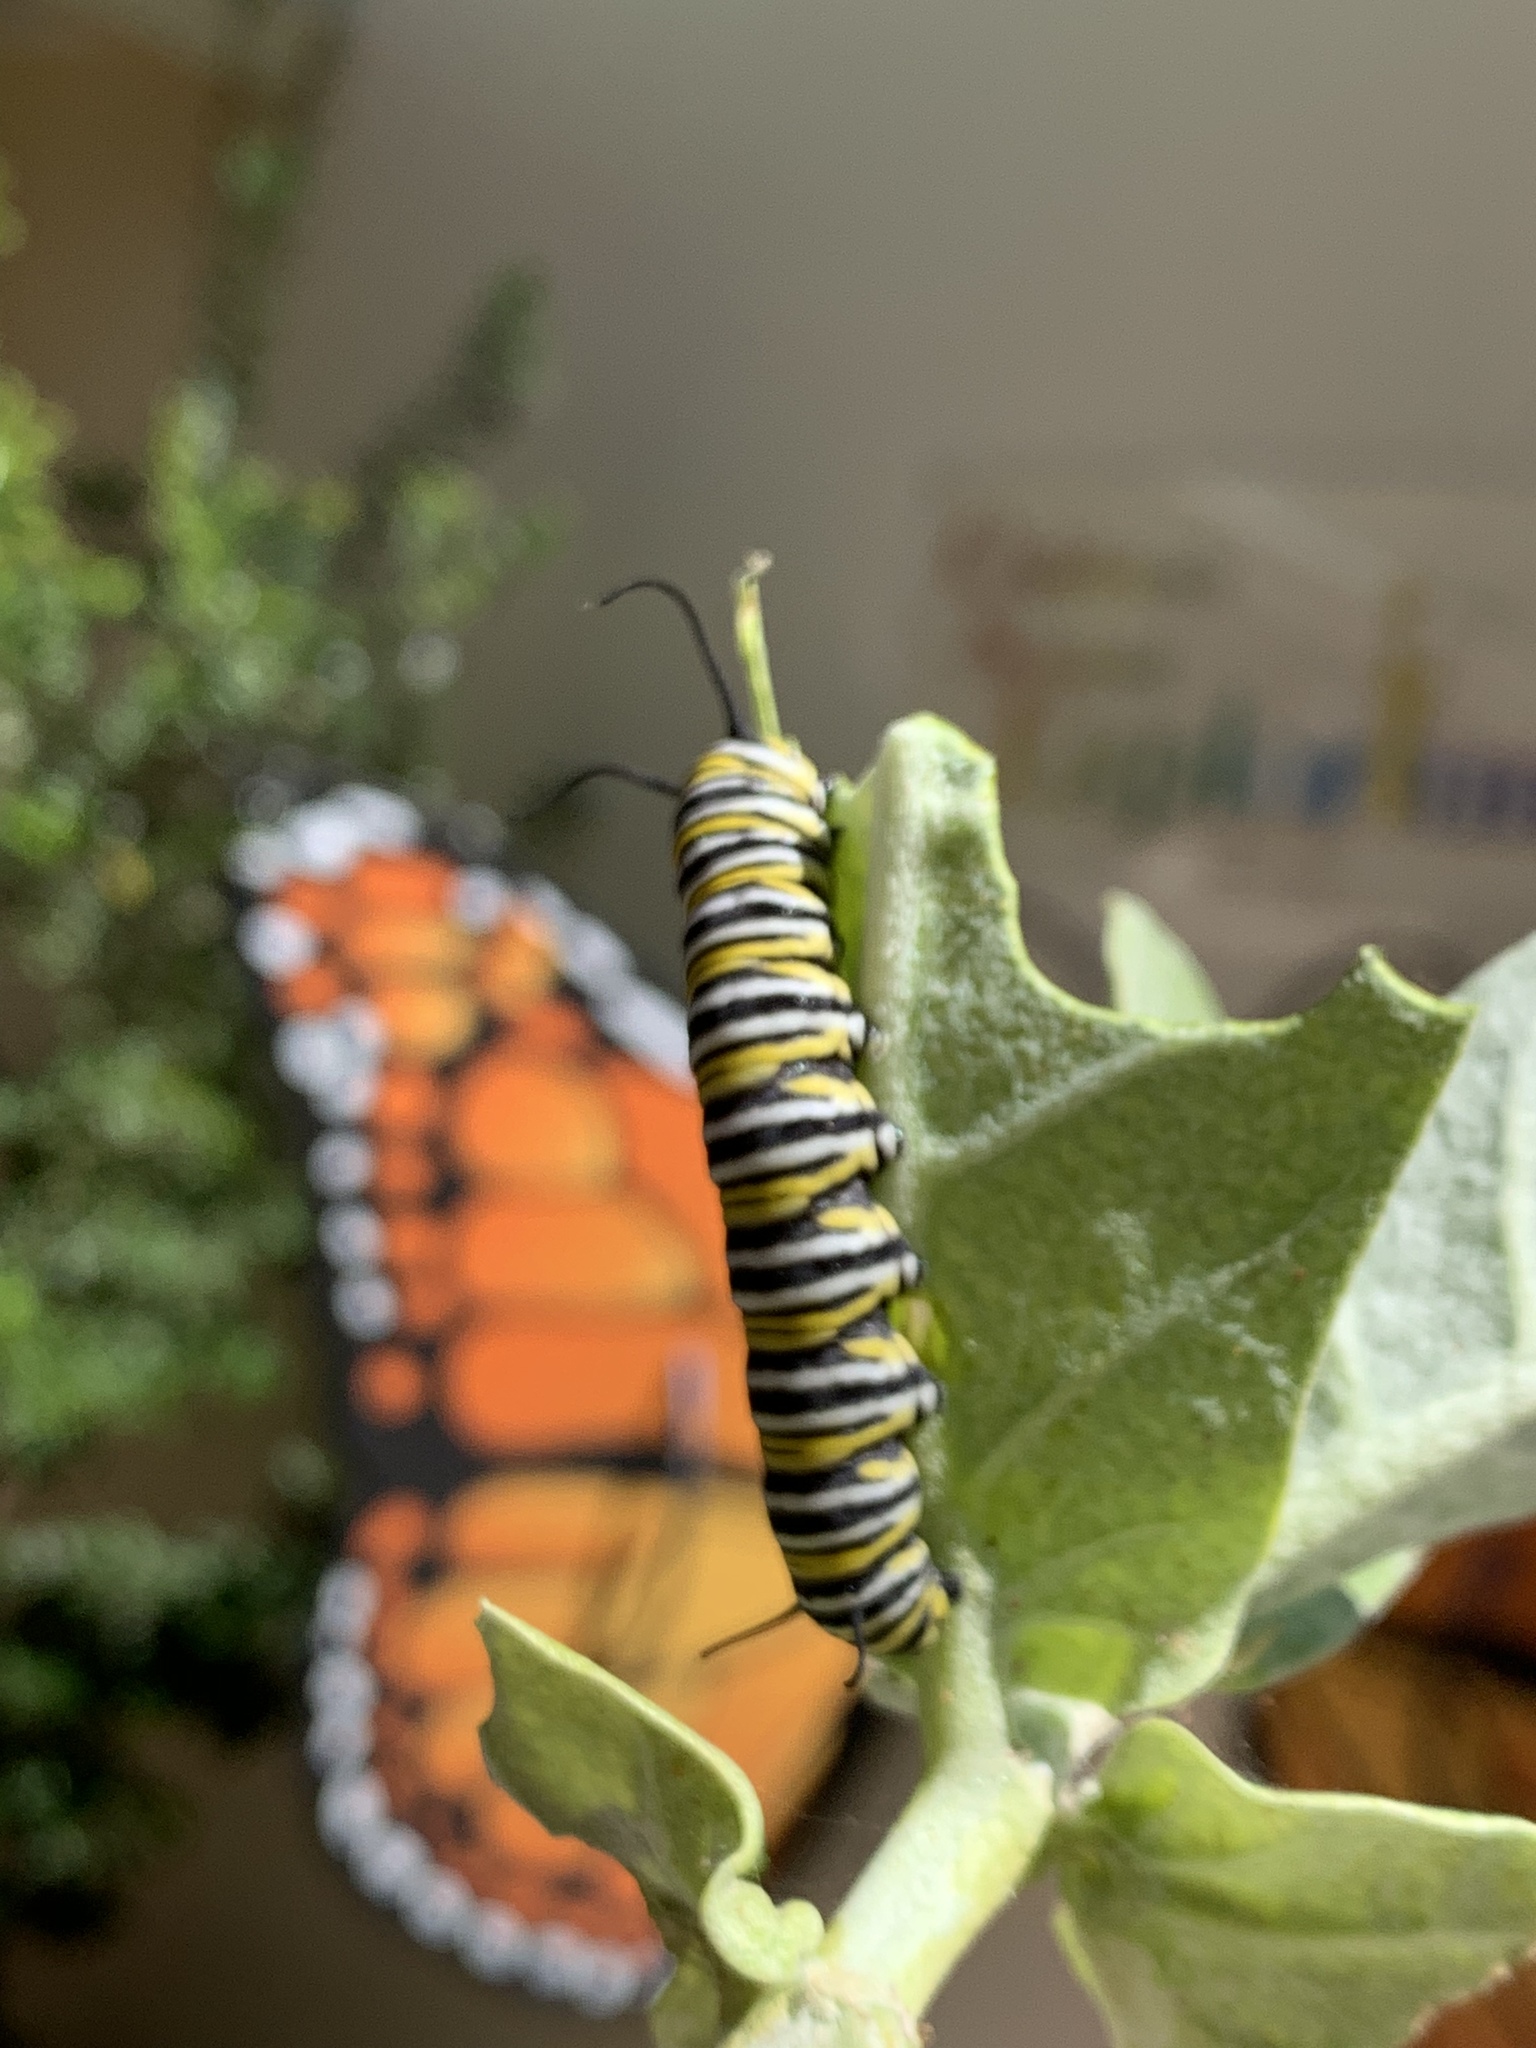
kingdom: Animalia
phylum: Arthropoda
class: Insecta
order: Lepidoptera
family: Nymphalidae
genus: Danaus
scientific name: Danaus plexippus
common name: Monarch
